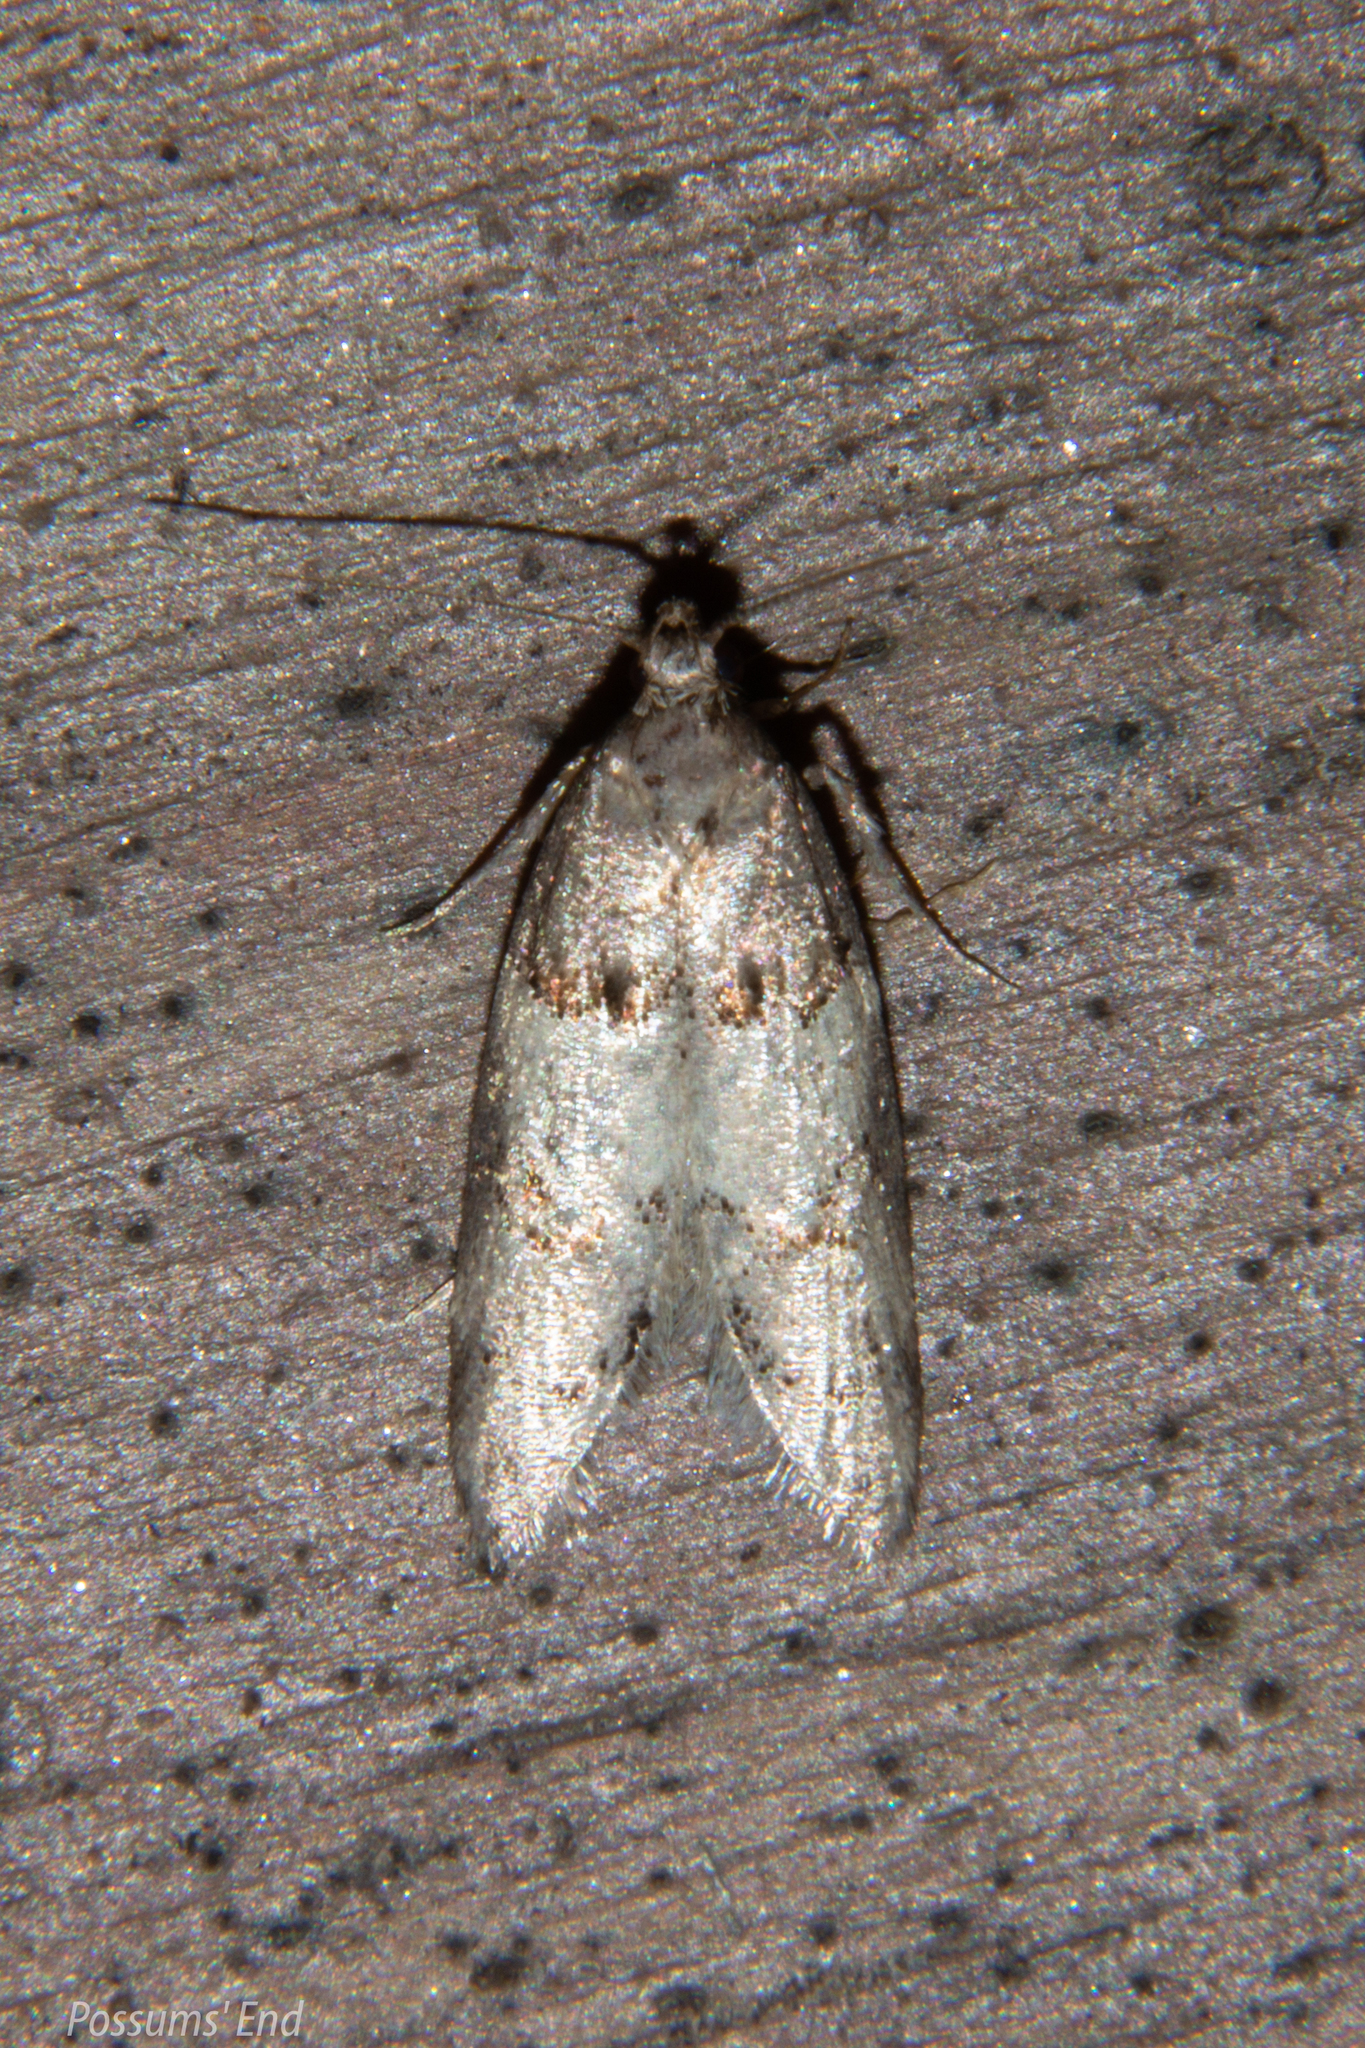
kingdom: Animalia
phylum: Arthropoda
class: Insecta
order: Lepidoptera
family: Oecophoridae
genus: Trachypepla
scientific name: Trachypepla contritella
